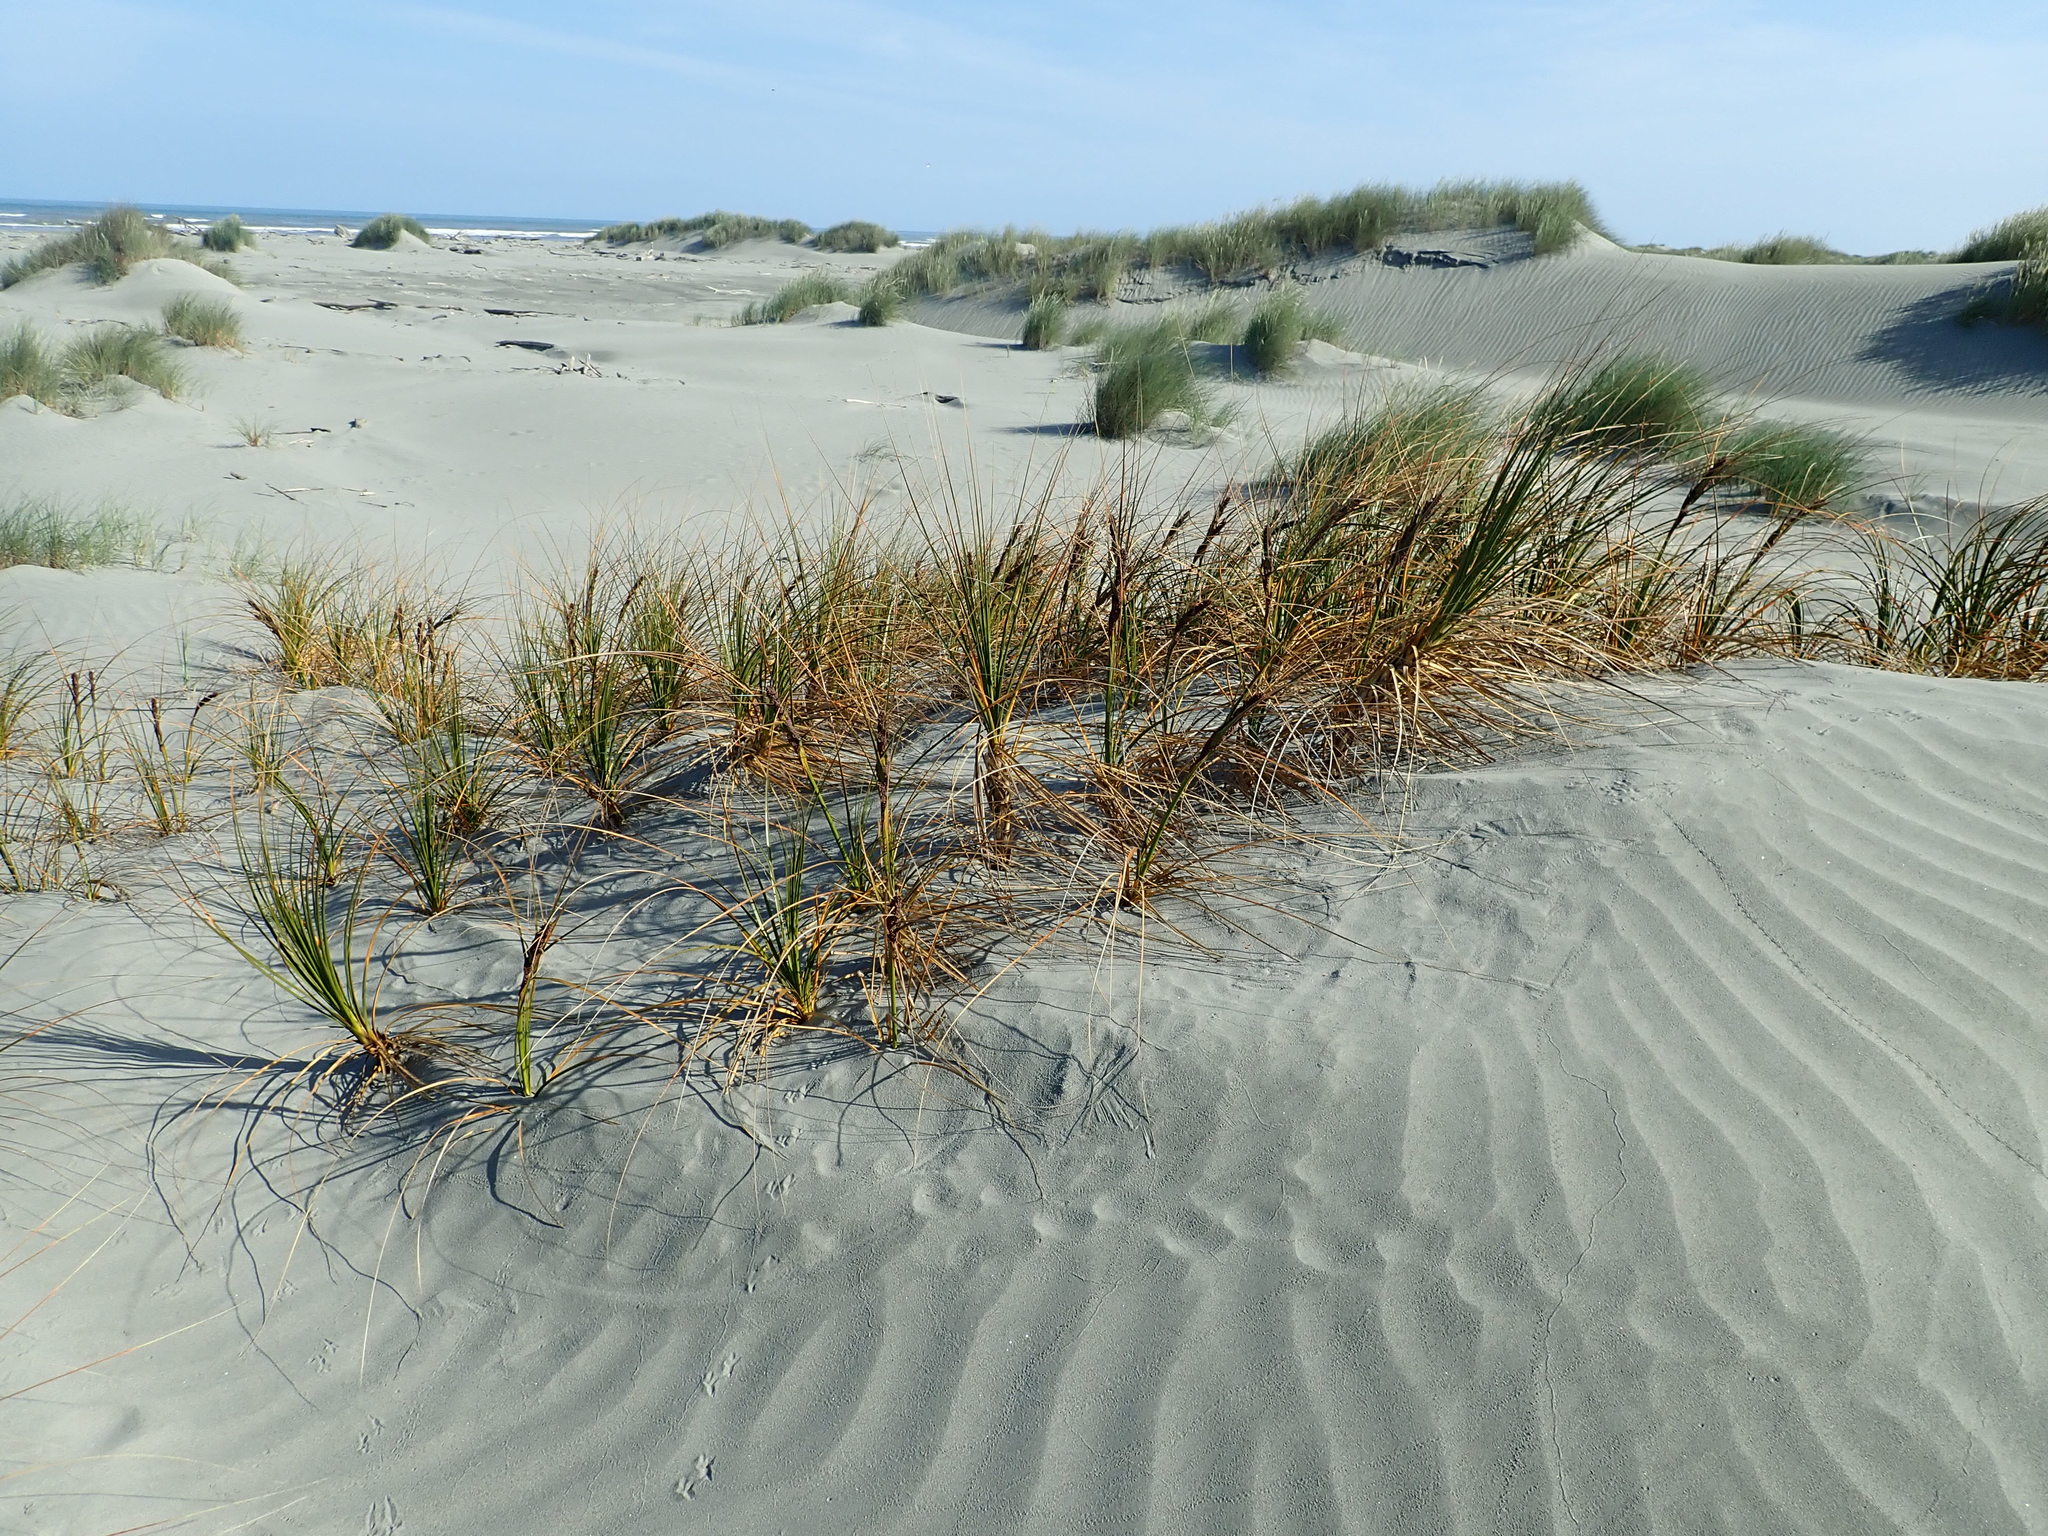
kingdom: Plantae
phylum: Tracheophyta
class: Liliopsida
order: Poales
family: Cyperaceae
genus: Ficinia
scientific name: Ficinia spiralis
